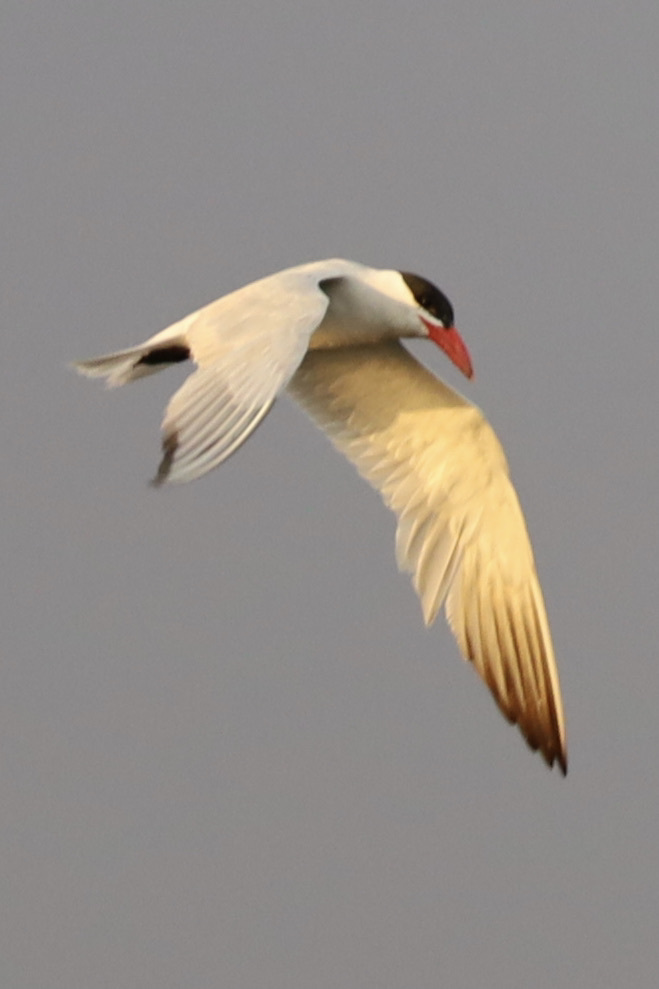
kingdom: Animalia
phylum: Chordata
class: Aves
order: Charadriiformes
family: Laridae
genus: Hydroprogne
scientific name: Hydroprogne caspia
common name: Caspian tern
